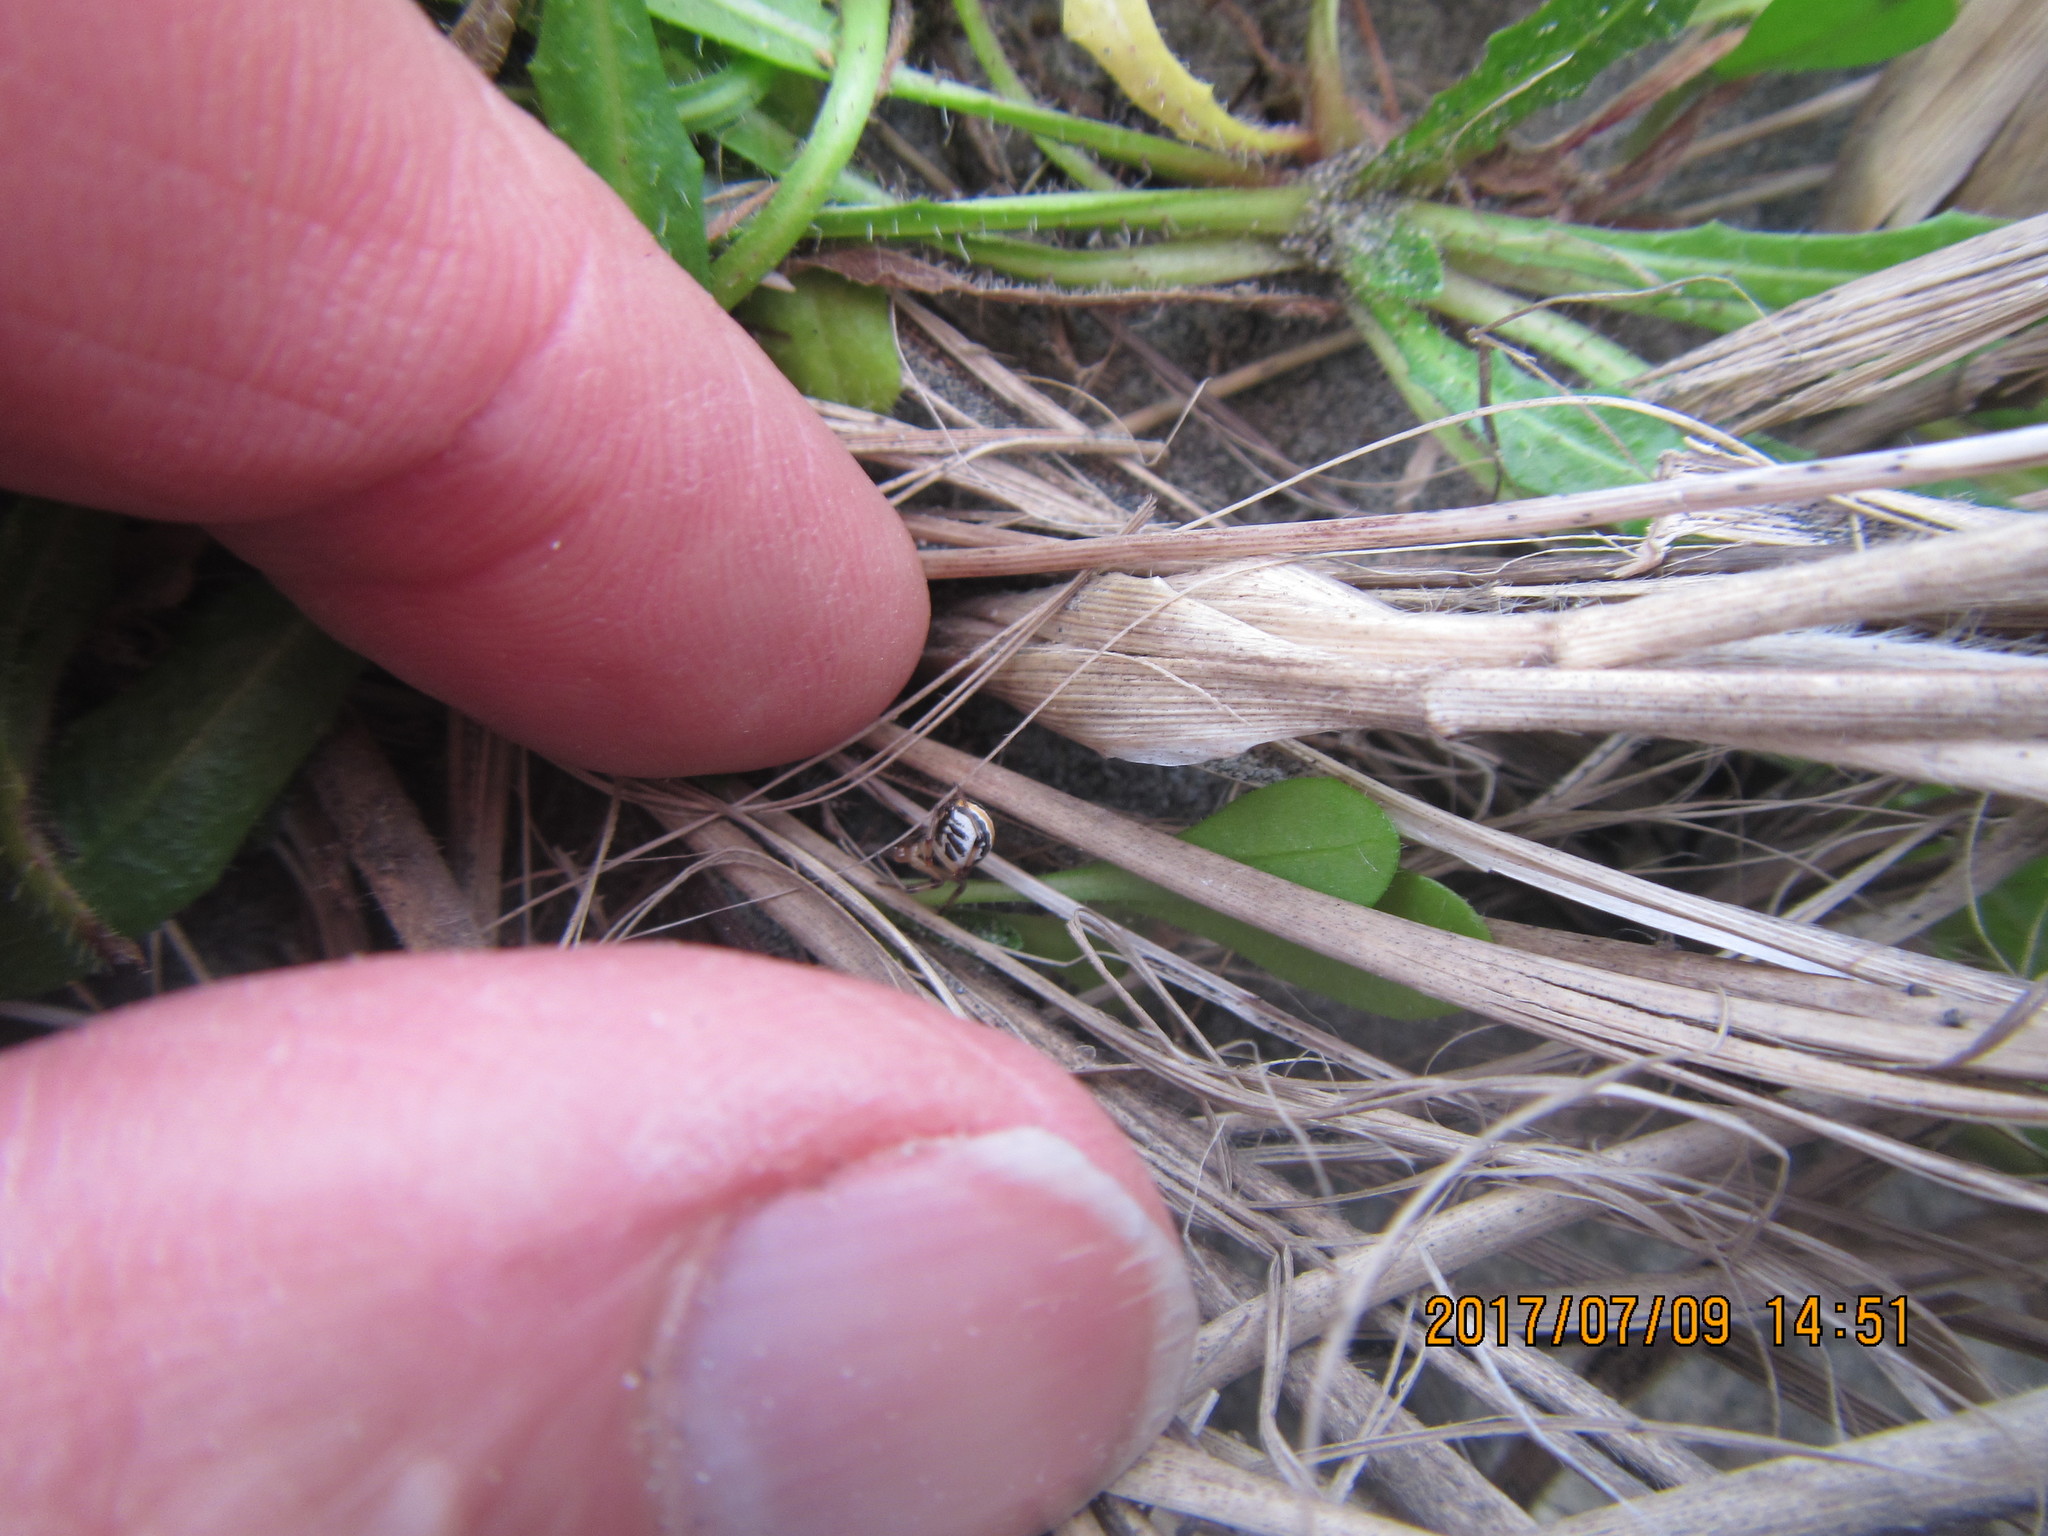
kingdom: Animalia
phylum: Arthropoda
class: Arachnida
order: Araneae
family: Theridiidae
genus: Latrodectus
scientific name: Latrodectus katipo
